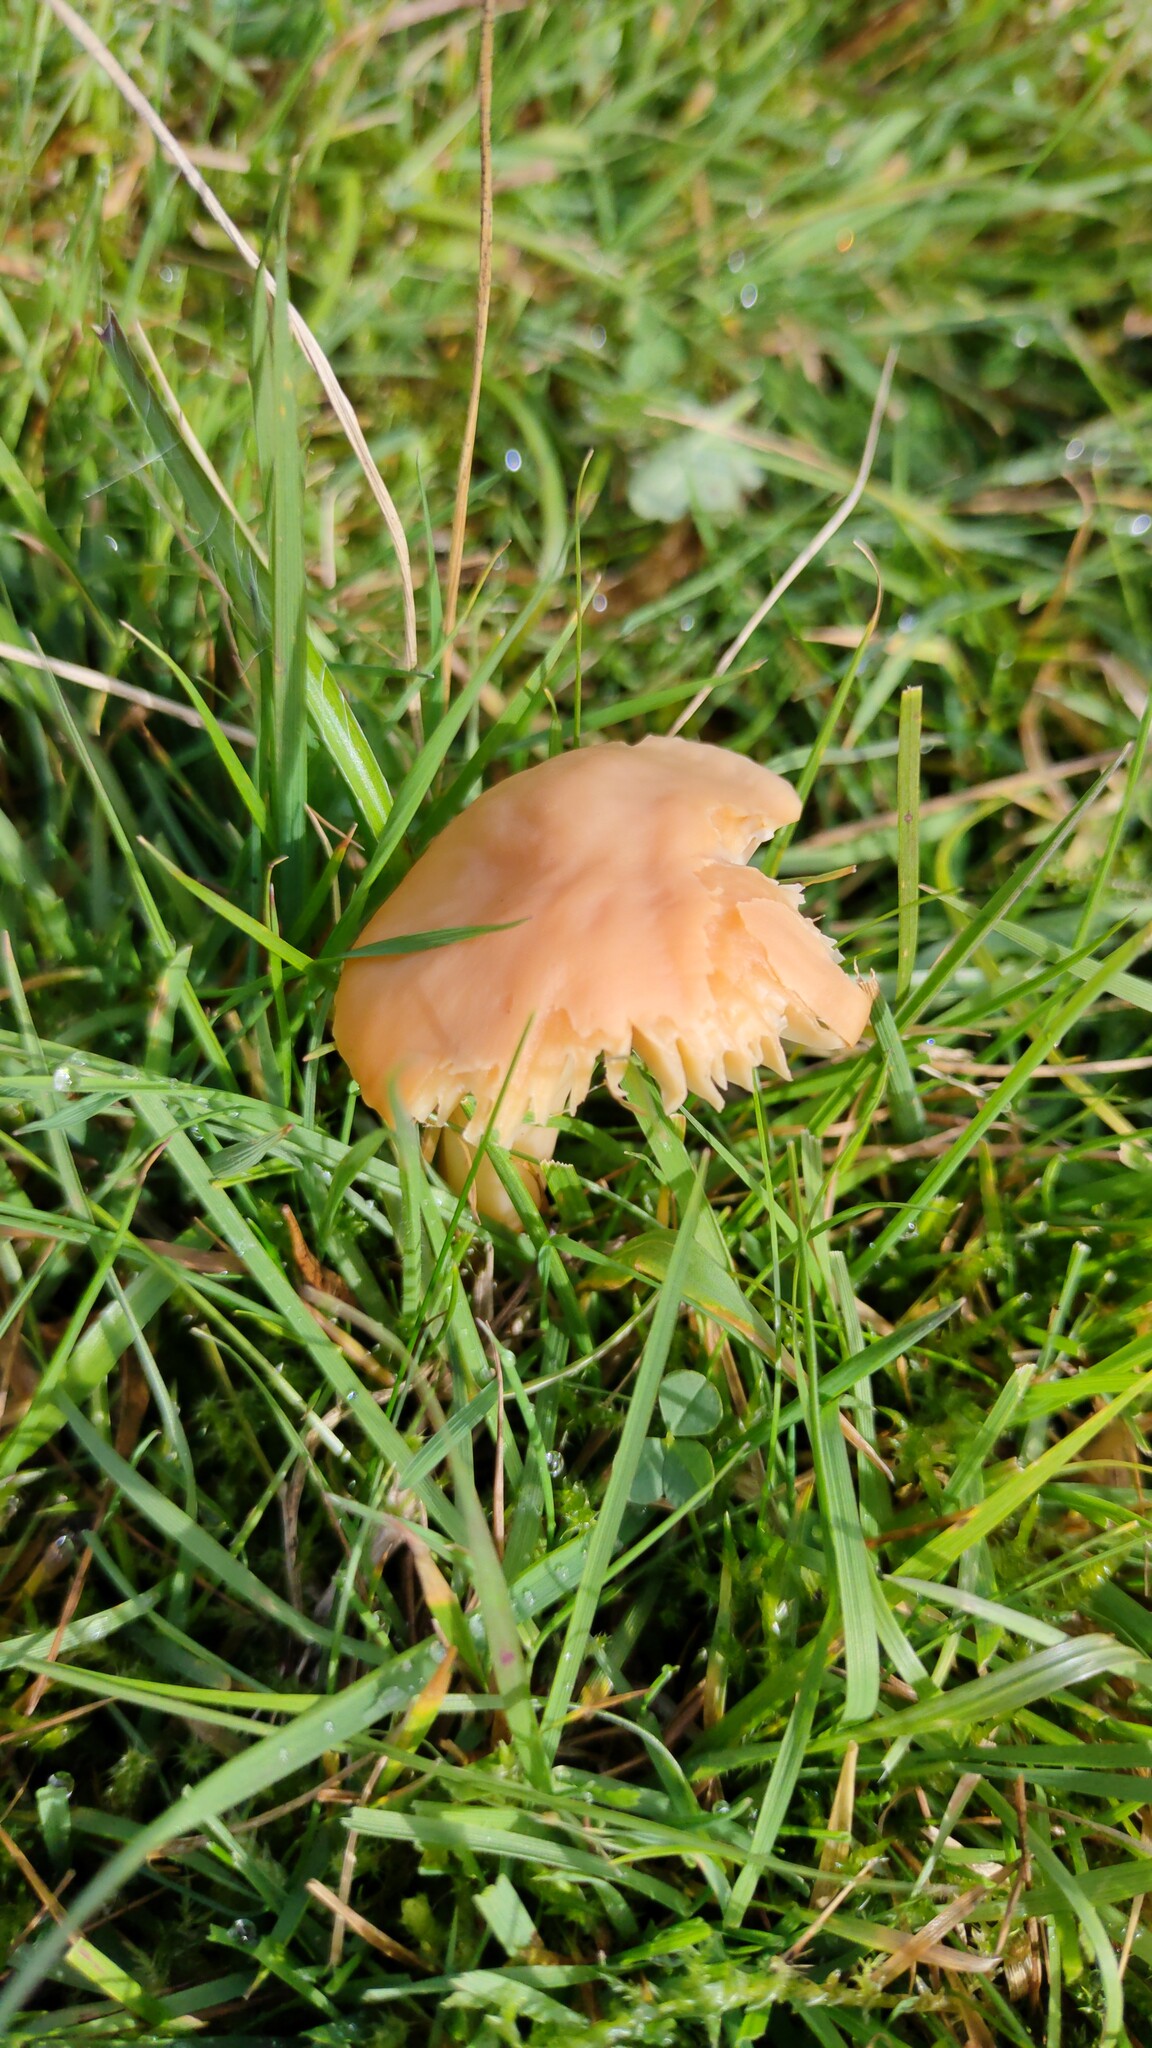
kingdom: Fungi
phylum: Basidiomycota
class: Agaricomycetes
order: Agaricales
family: Hygrophoraceae
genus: Cuphophyllus
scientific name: Cuphophyllus pratensis
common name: Meadow waxcap
